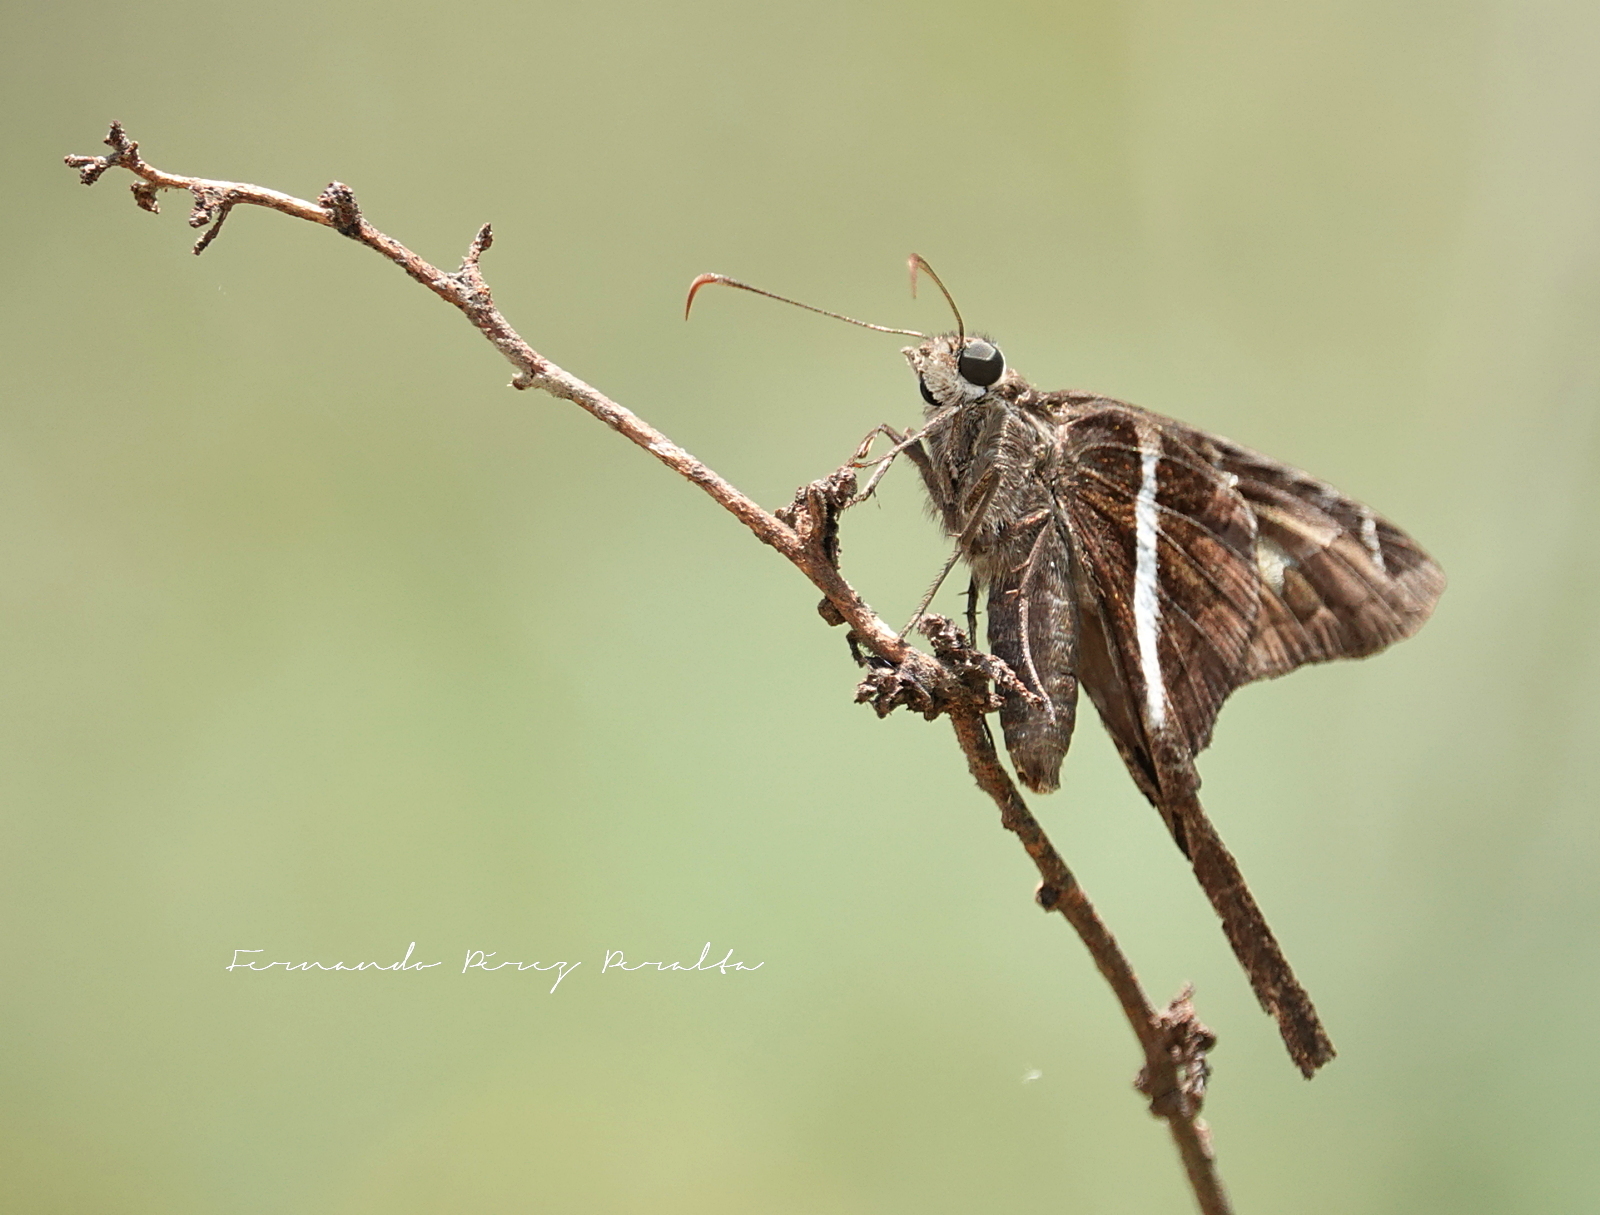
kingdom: Animalia
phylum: Arthropoda
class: Insecta
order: Lepidoptera
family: Hesperiidae
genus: Chioides
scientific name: Chioides catillus
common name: Silverbanded skipper
